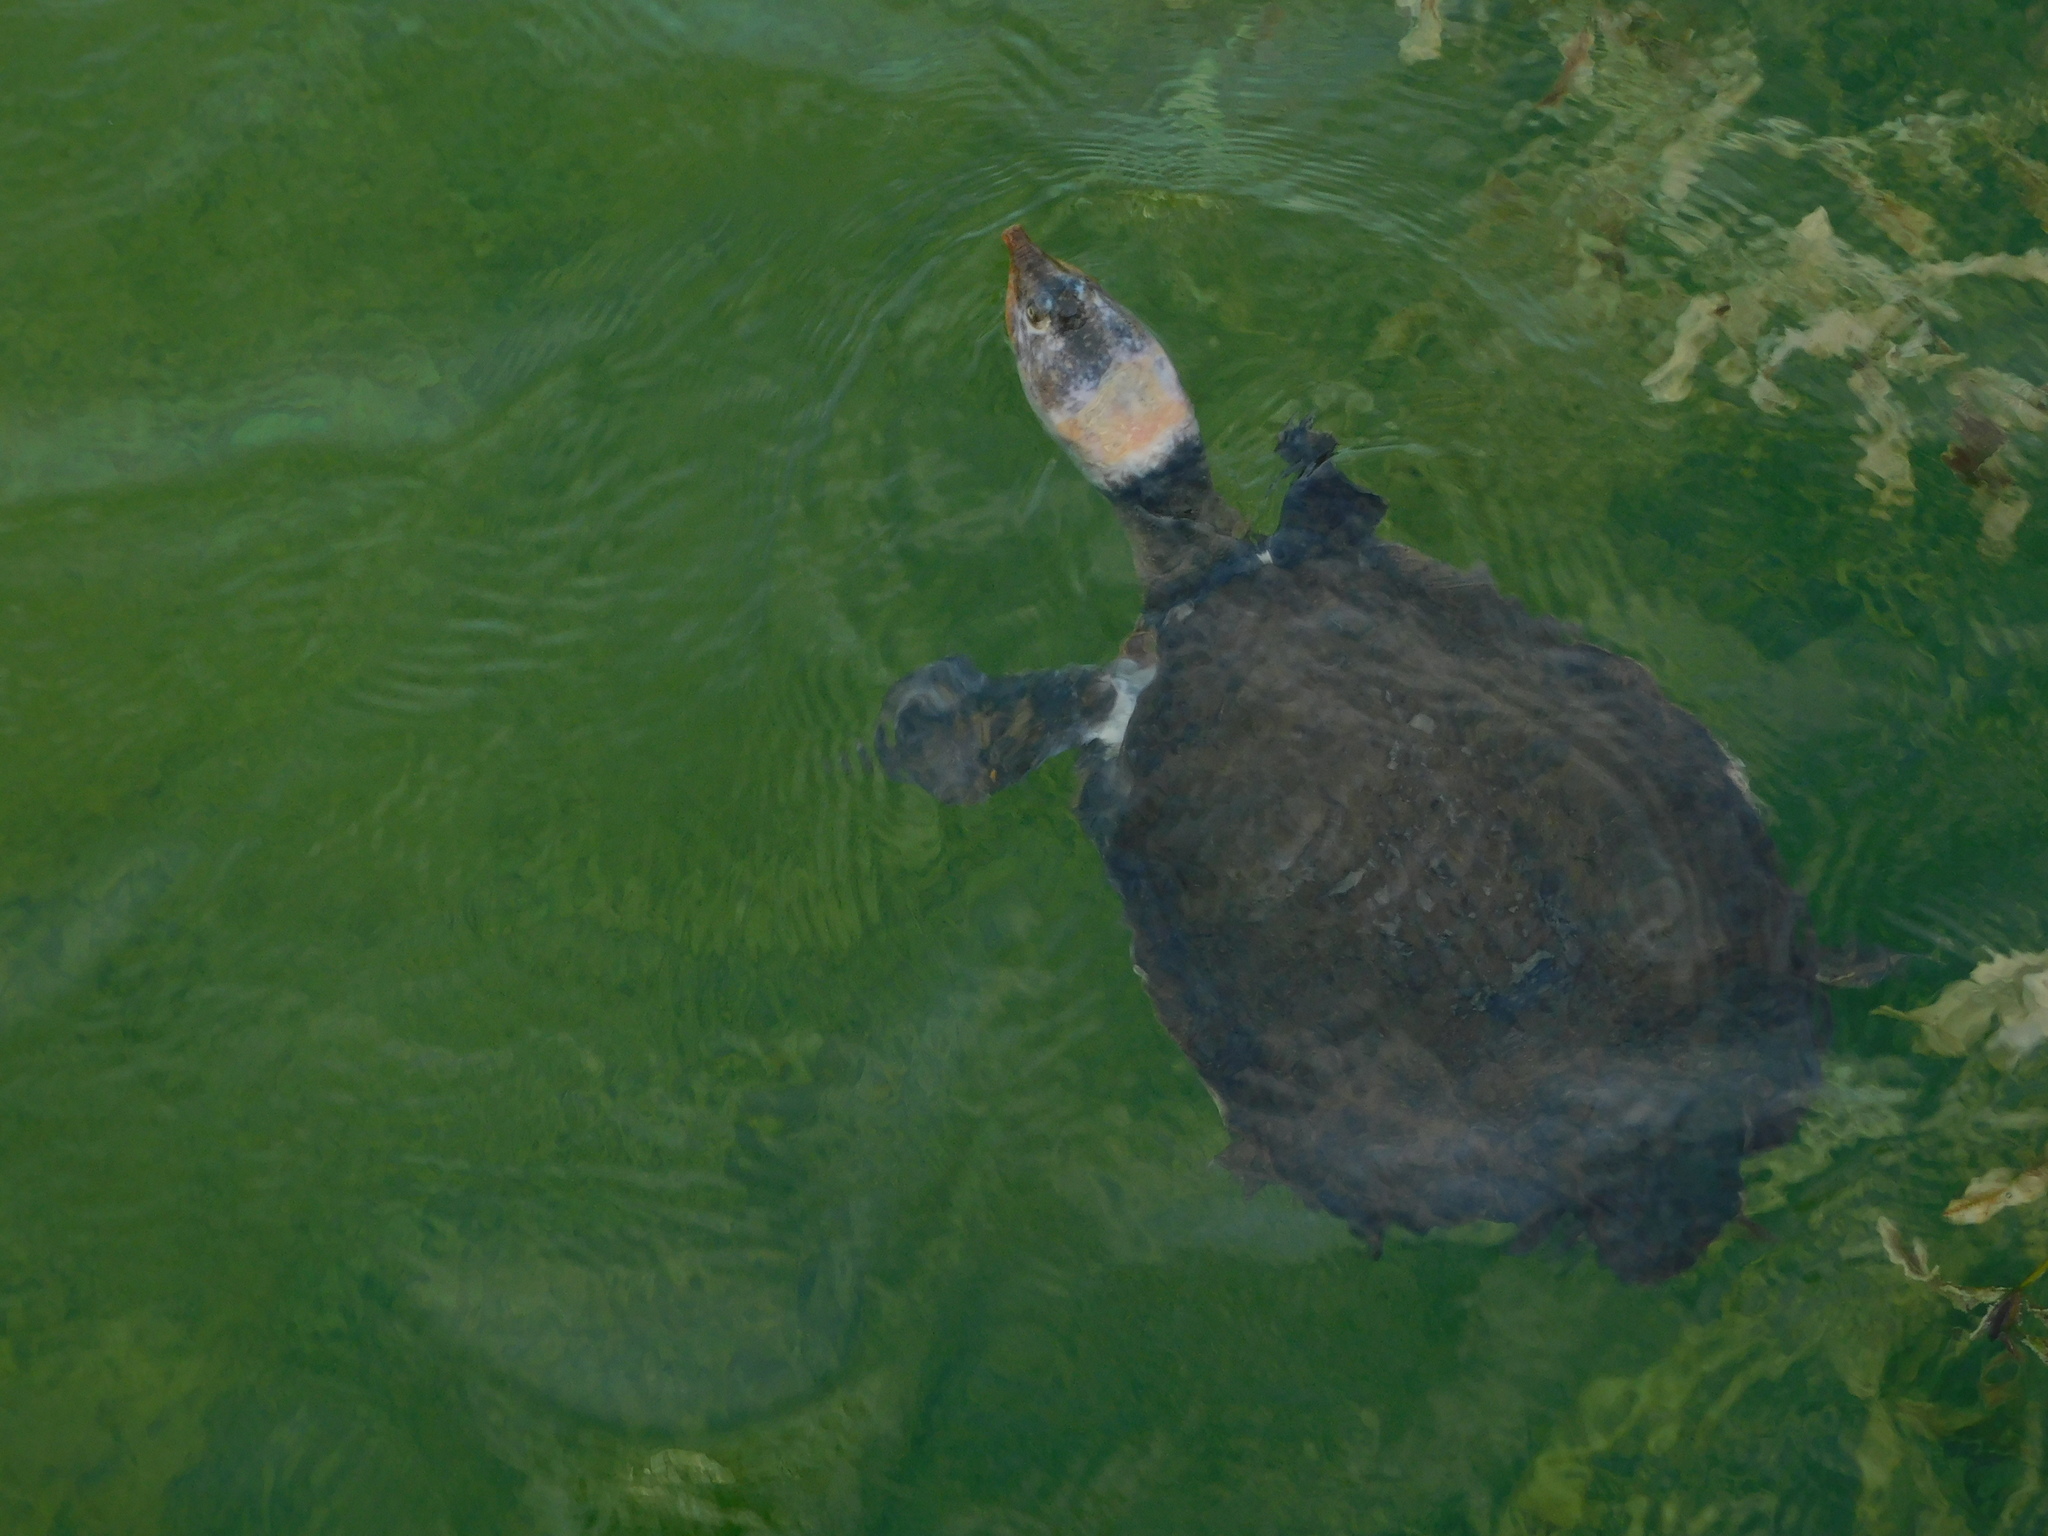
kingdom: Animalia
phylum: Chordata
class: Testudines
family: Trionychidae
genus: Apalone
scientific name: Apalone ferox
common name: Florida softshell turtle
